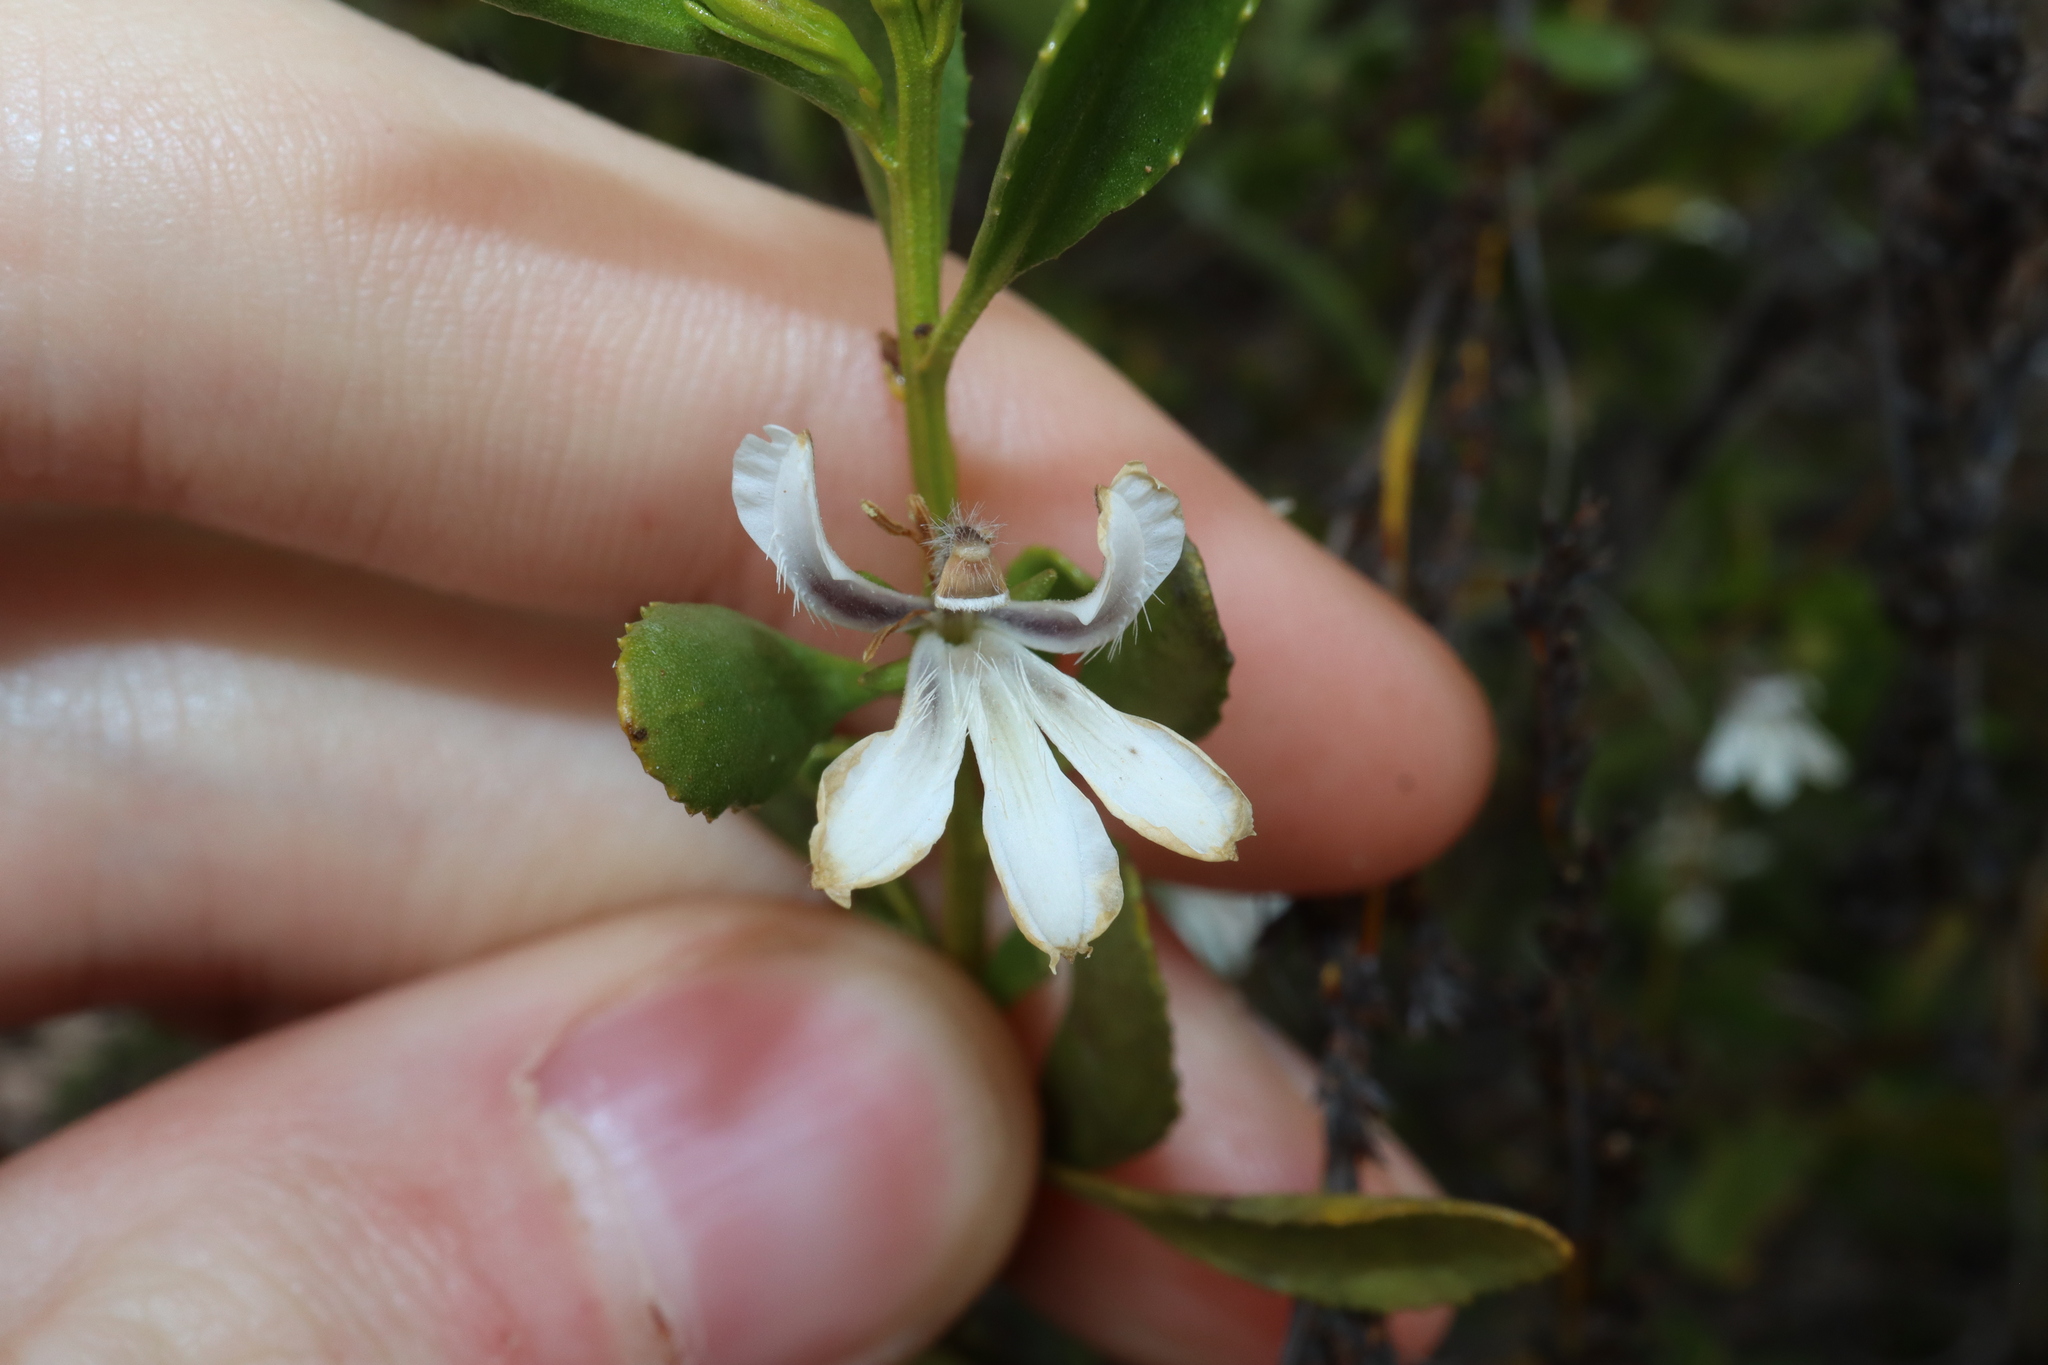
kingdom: Plantae
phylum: Tracheophyta
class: Magnoliopsida
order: Asterales
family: Goodeniaceae
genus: Goodenia
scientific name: Goodenia strophiolata
